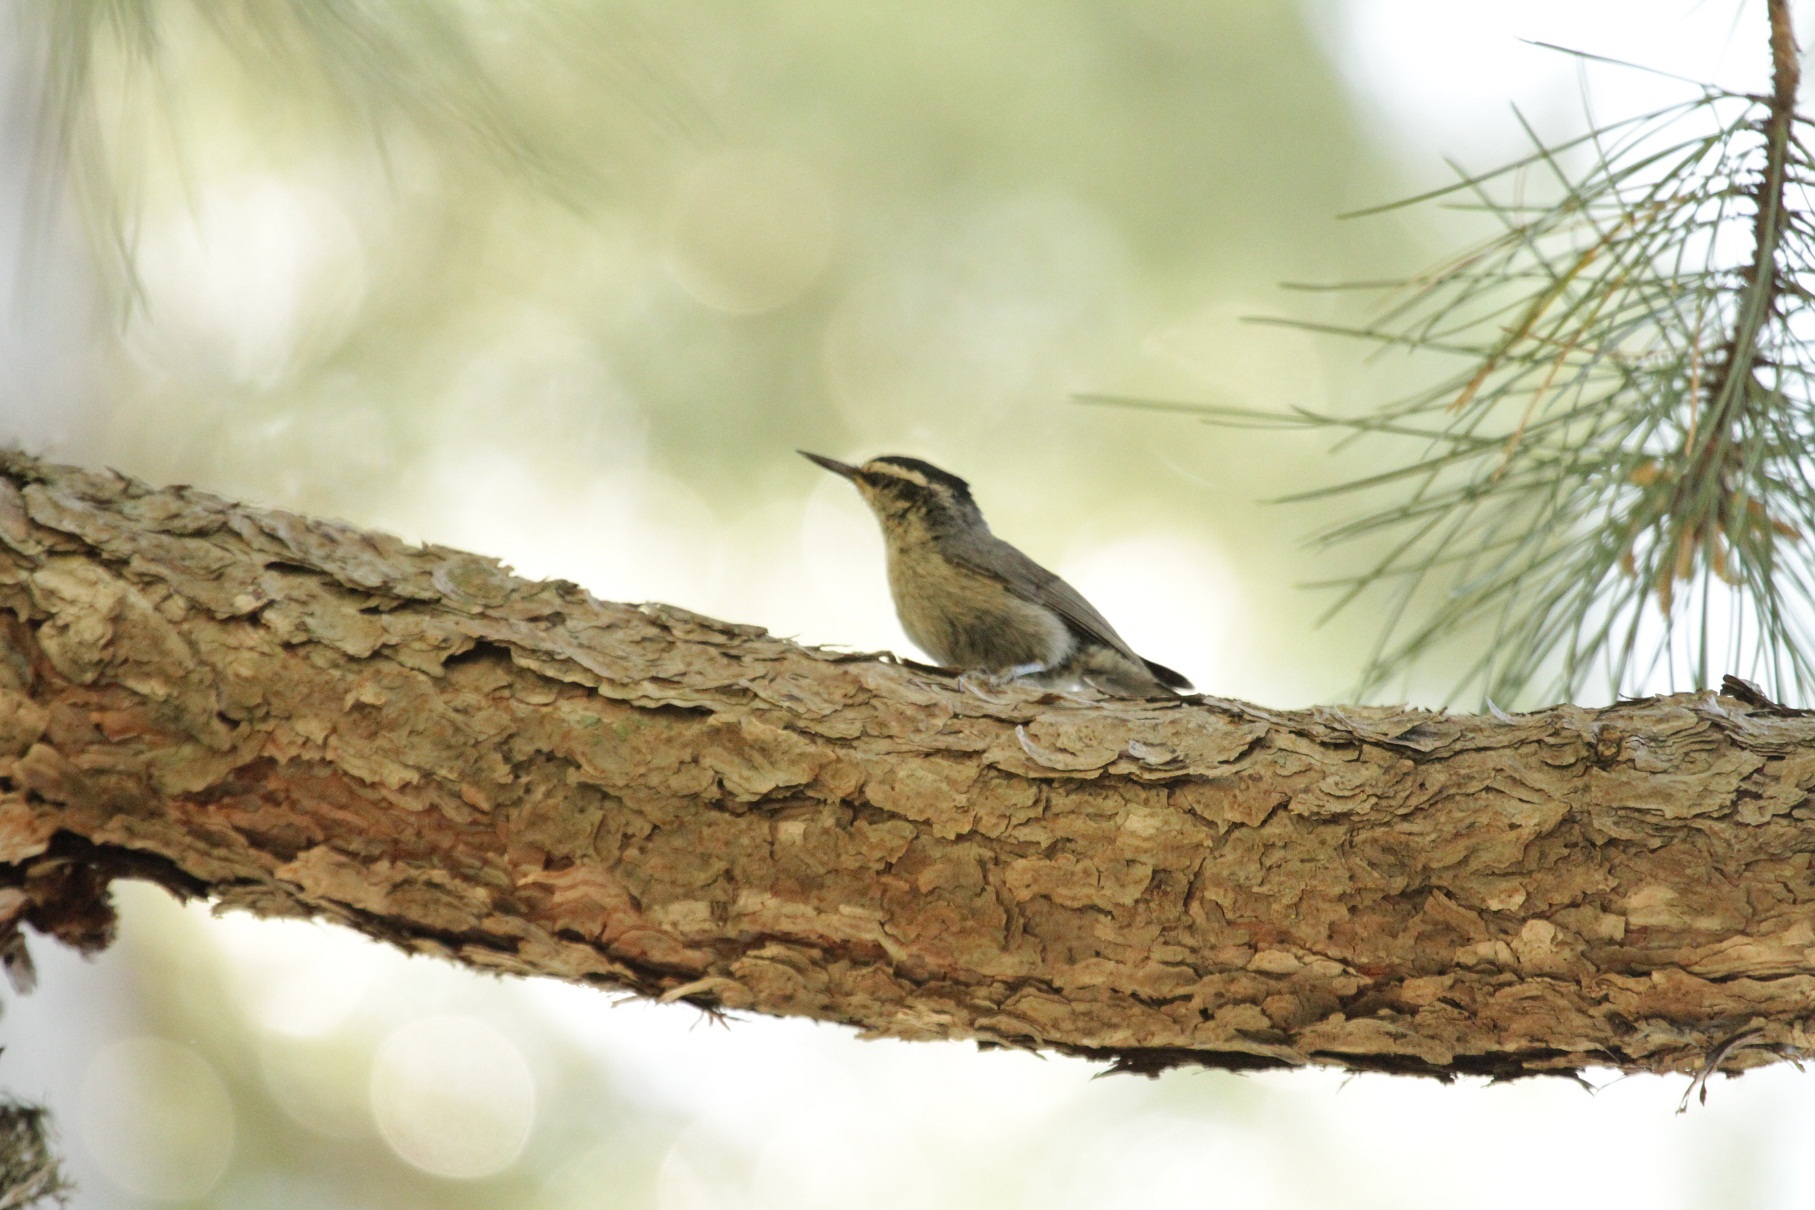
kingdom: Animalia
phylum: Chordata
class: Aves
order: Passeriformes
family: Sittidae
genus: Sitta
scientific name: Sitta whiteheadi
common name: Corsican nuthatch
